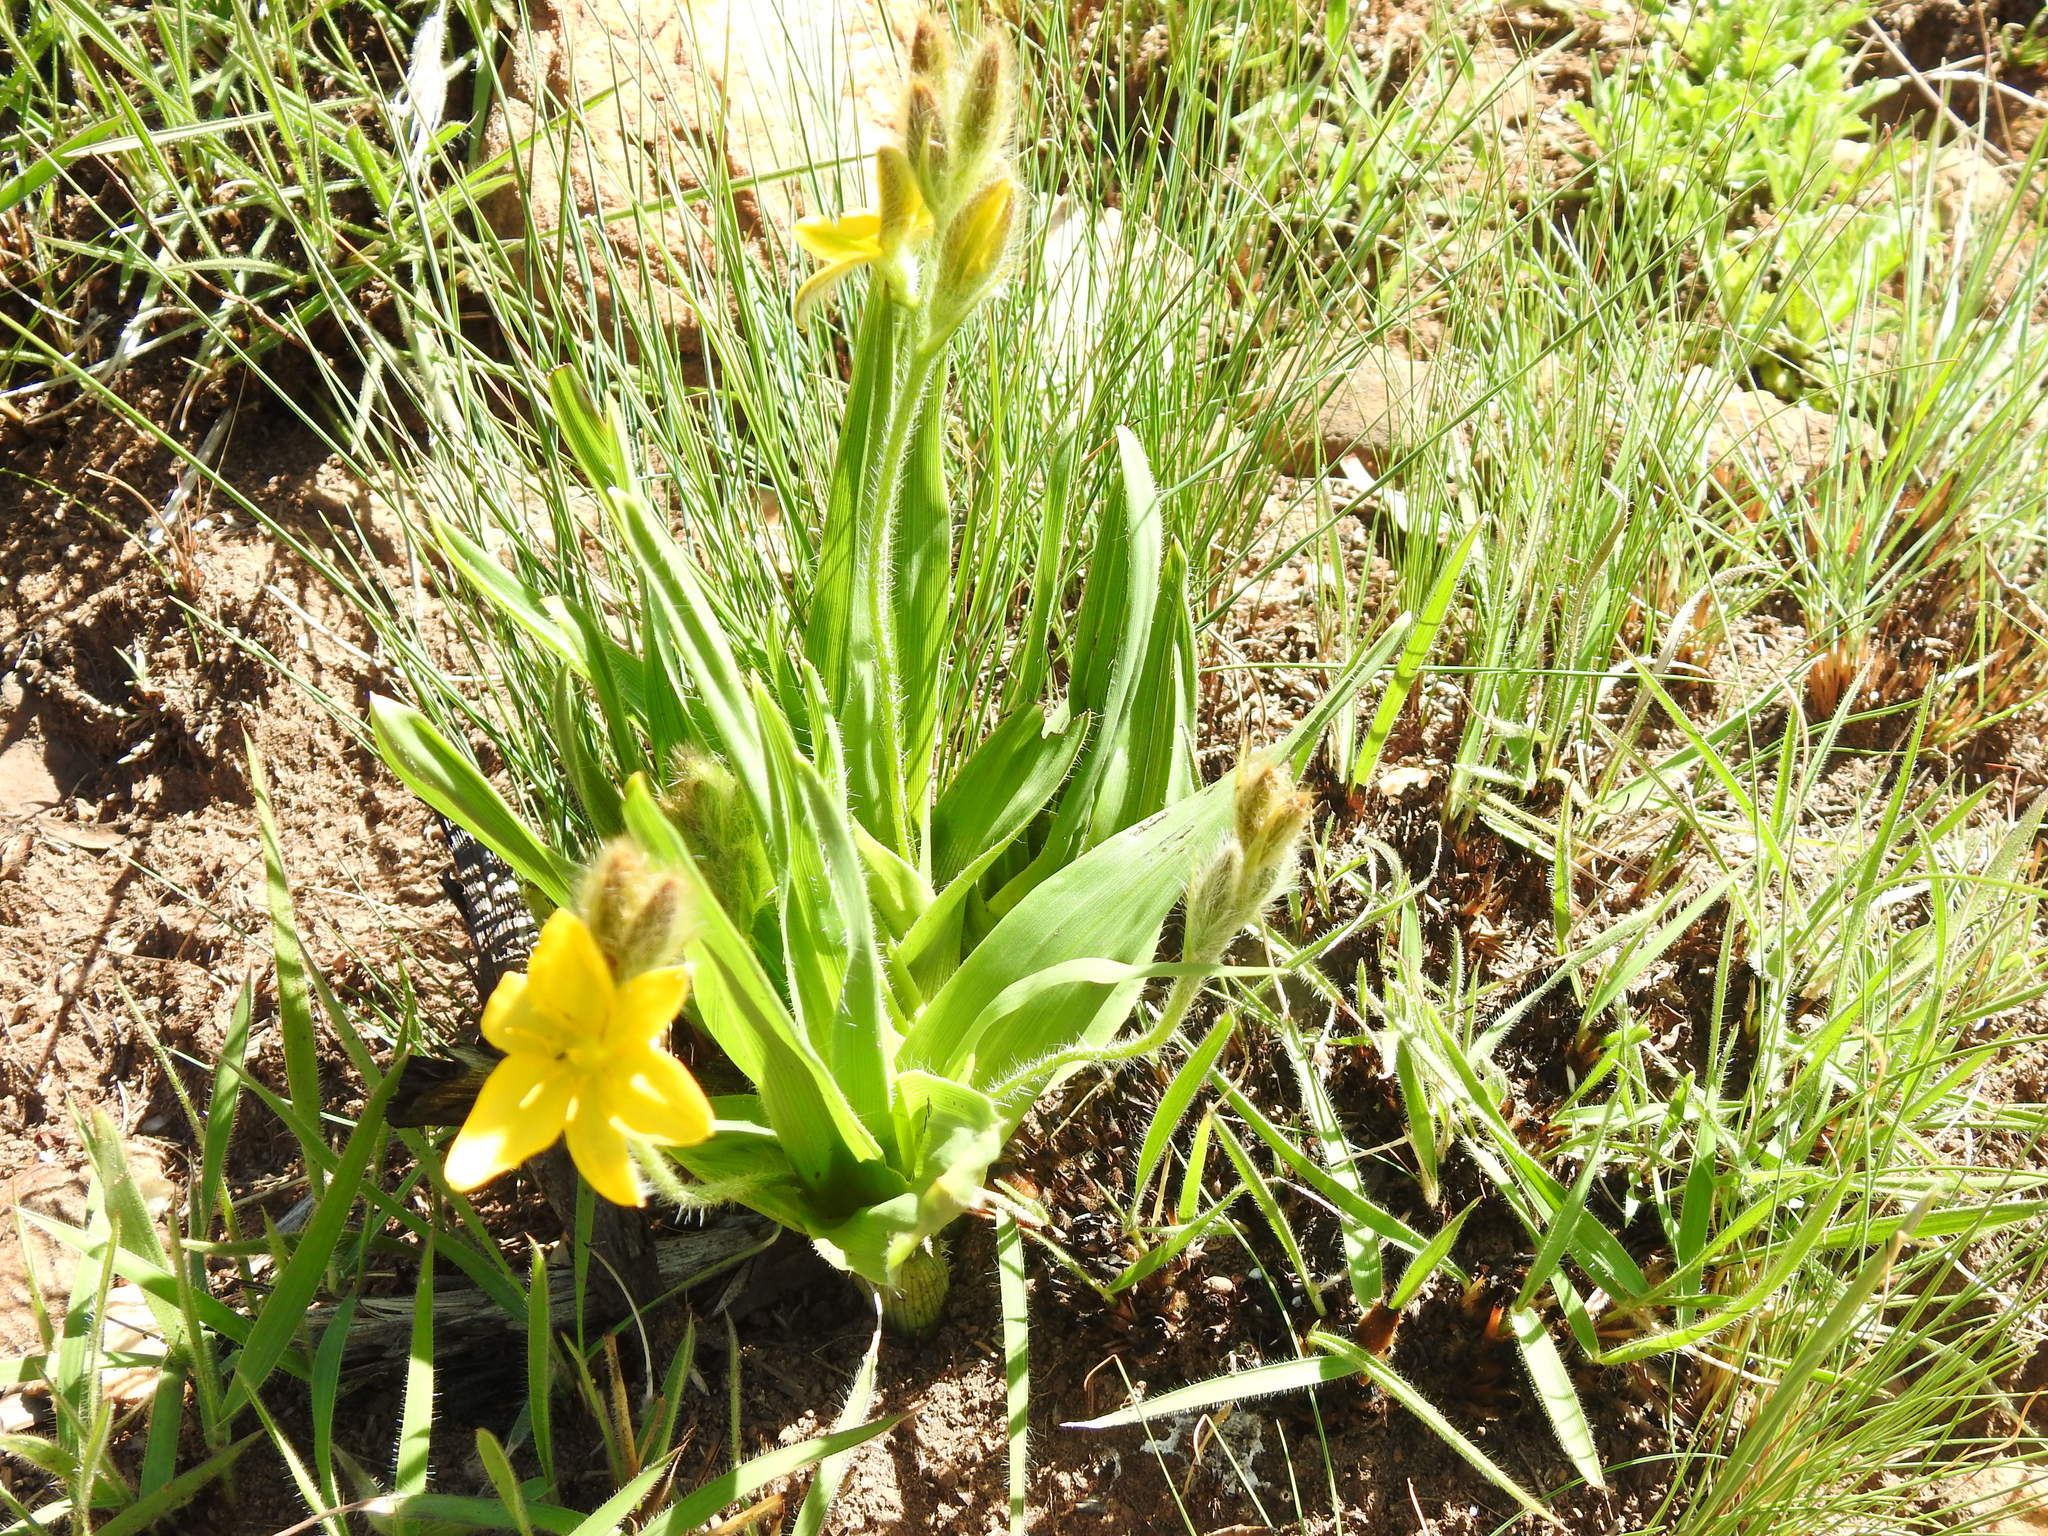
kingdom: Plantae
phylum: Tracheophyta
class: Liliopsida
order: Asparagales
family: Hypoxidaceae
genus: Hypoxis
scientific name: Hypoxis galpinii
